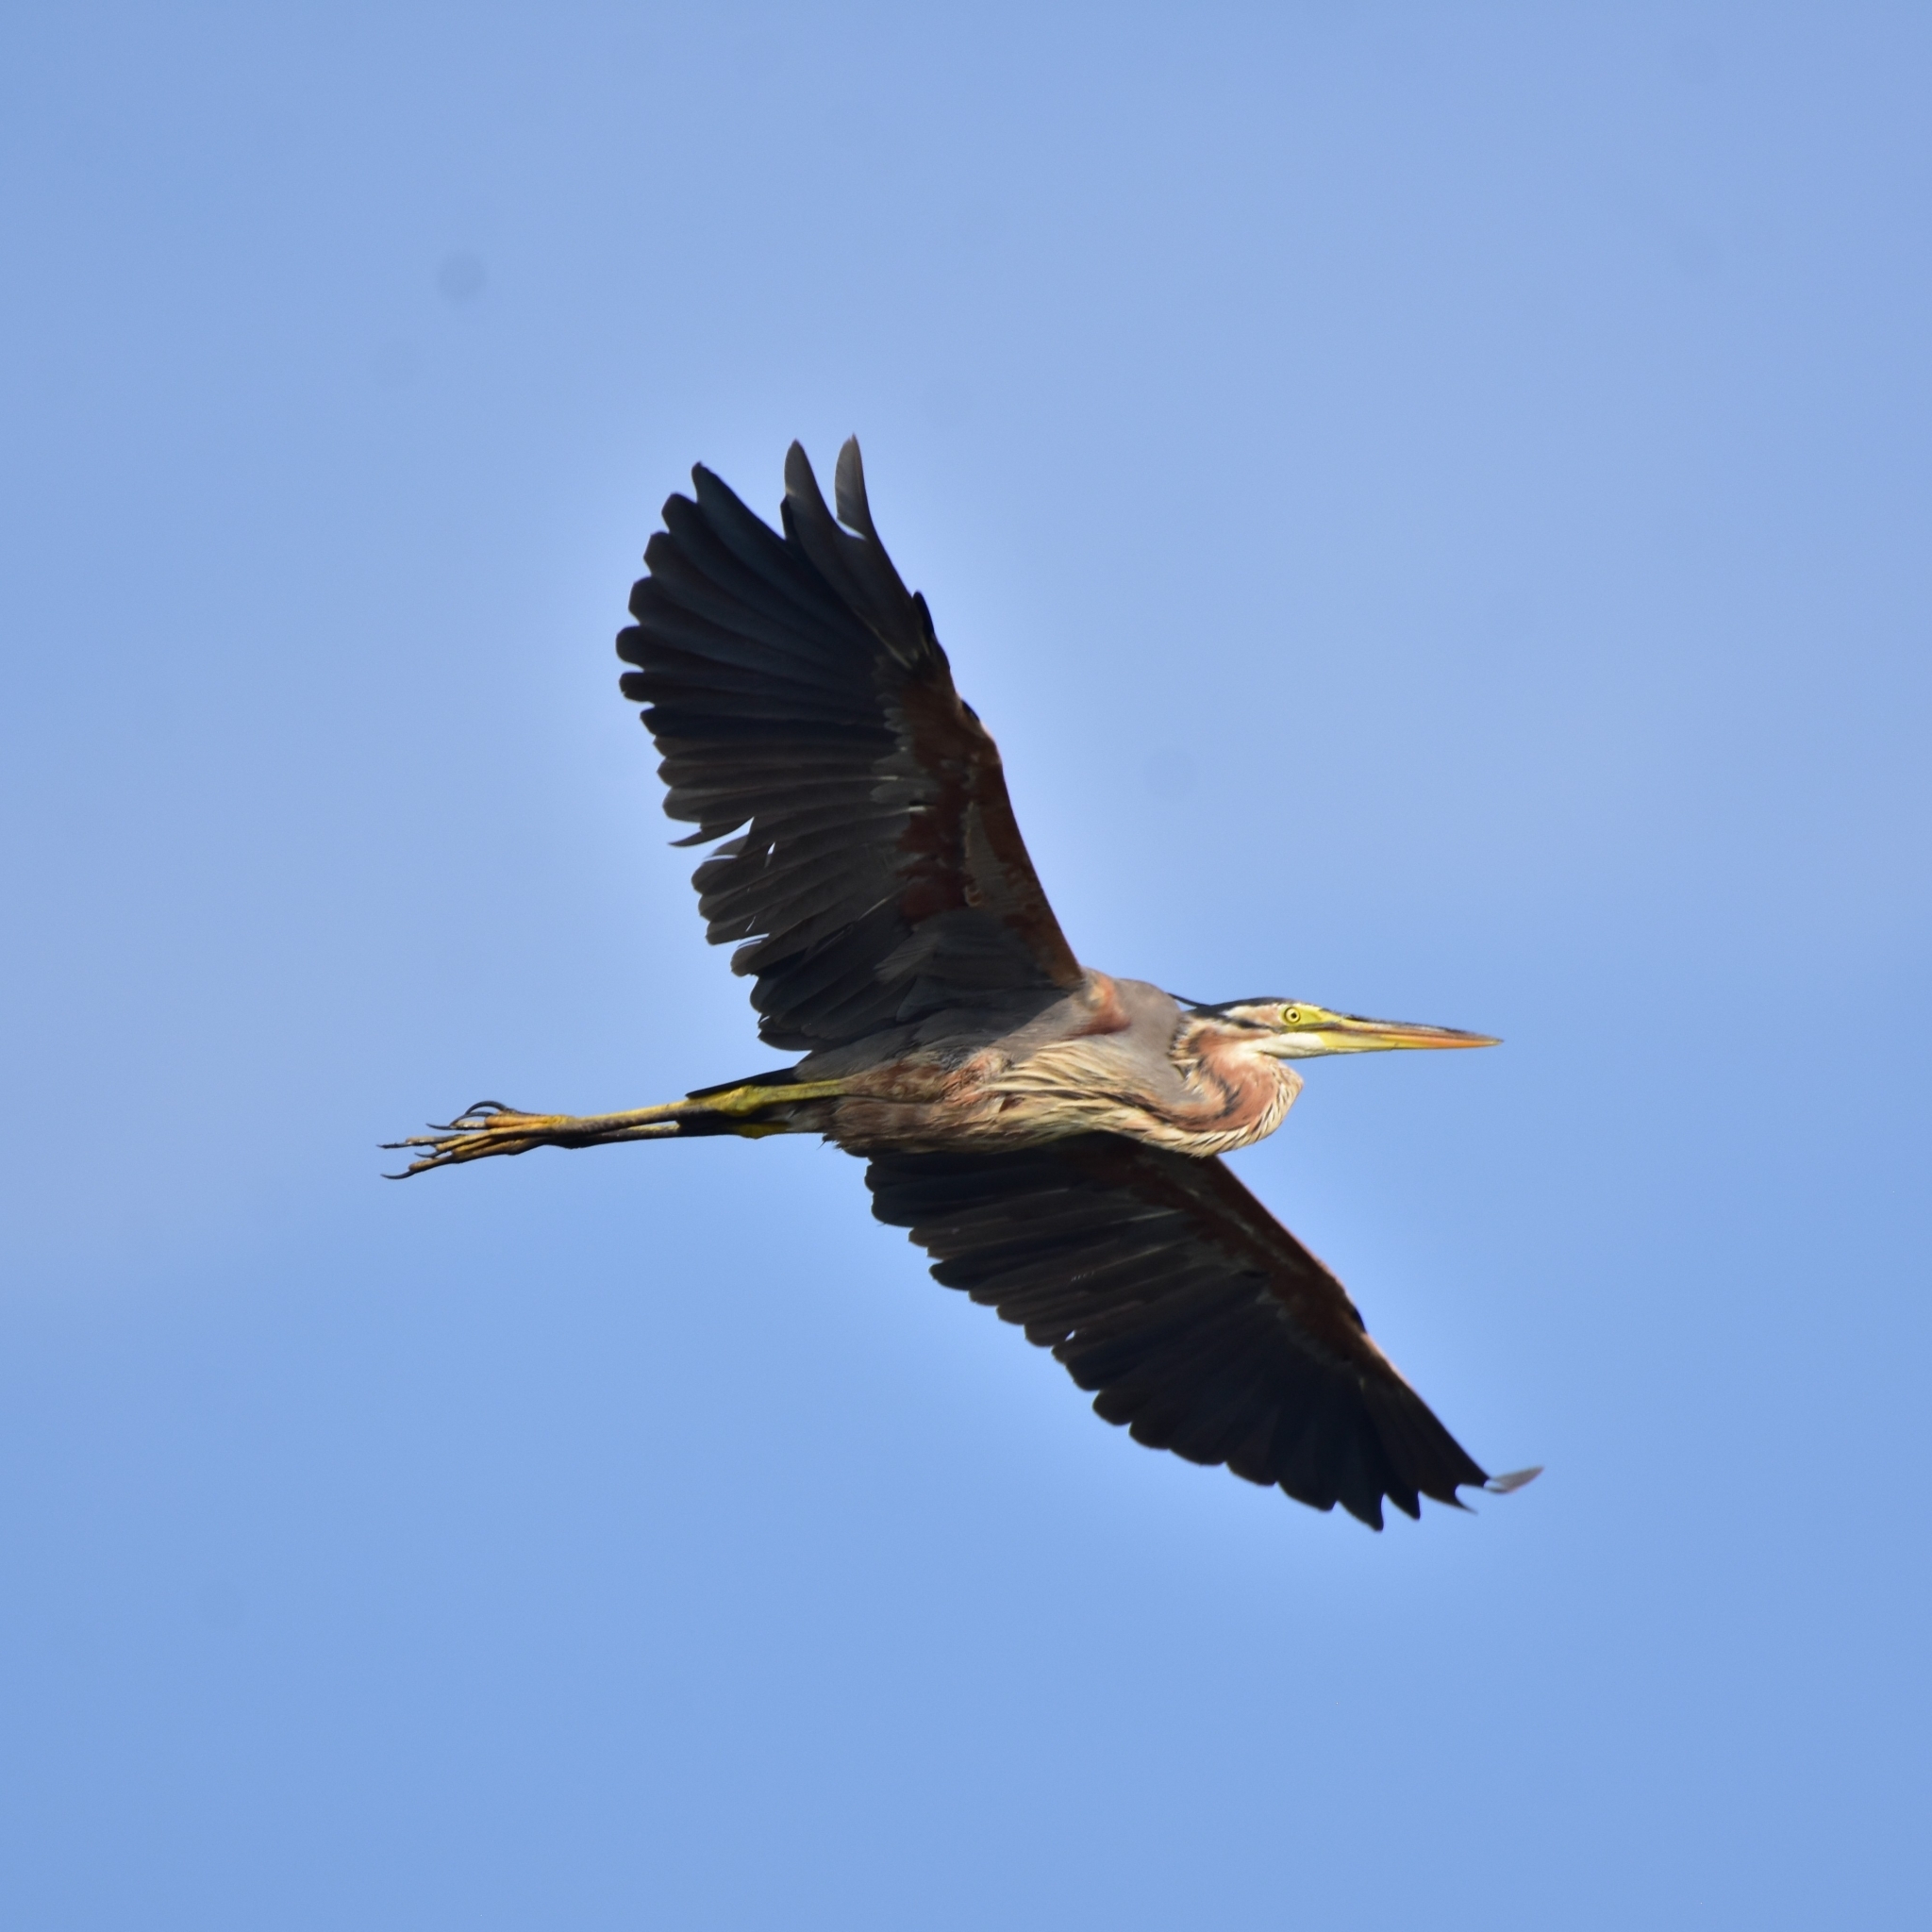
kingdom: Animalia
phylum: Chordata
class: Aves
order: Pelecaniformes
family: Ardeidae
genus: Ardea
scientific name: Ardea purpurea
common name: Purple heron
